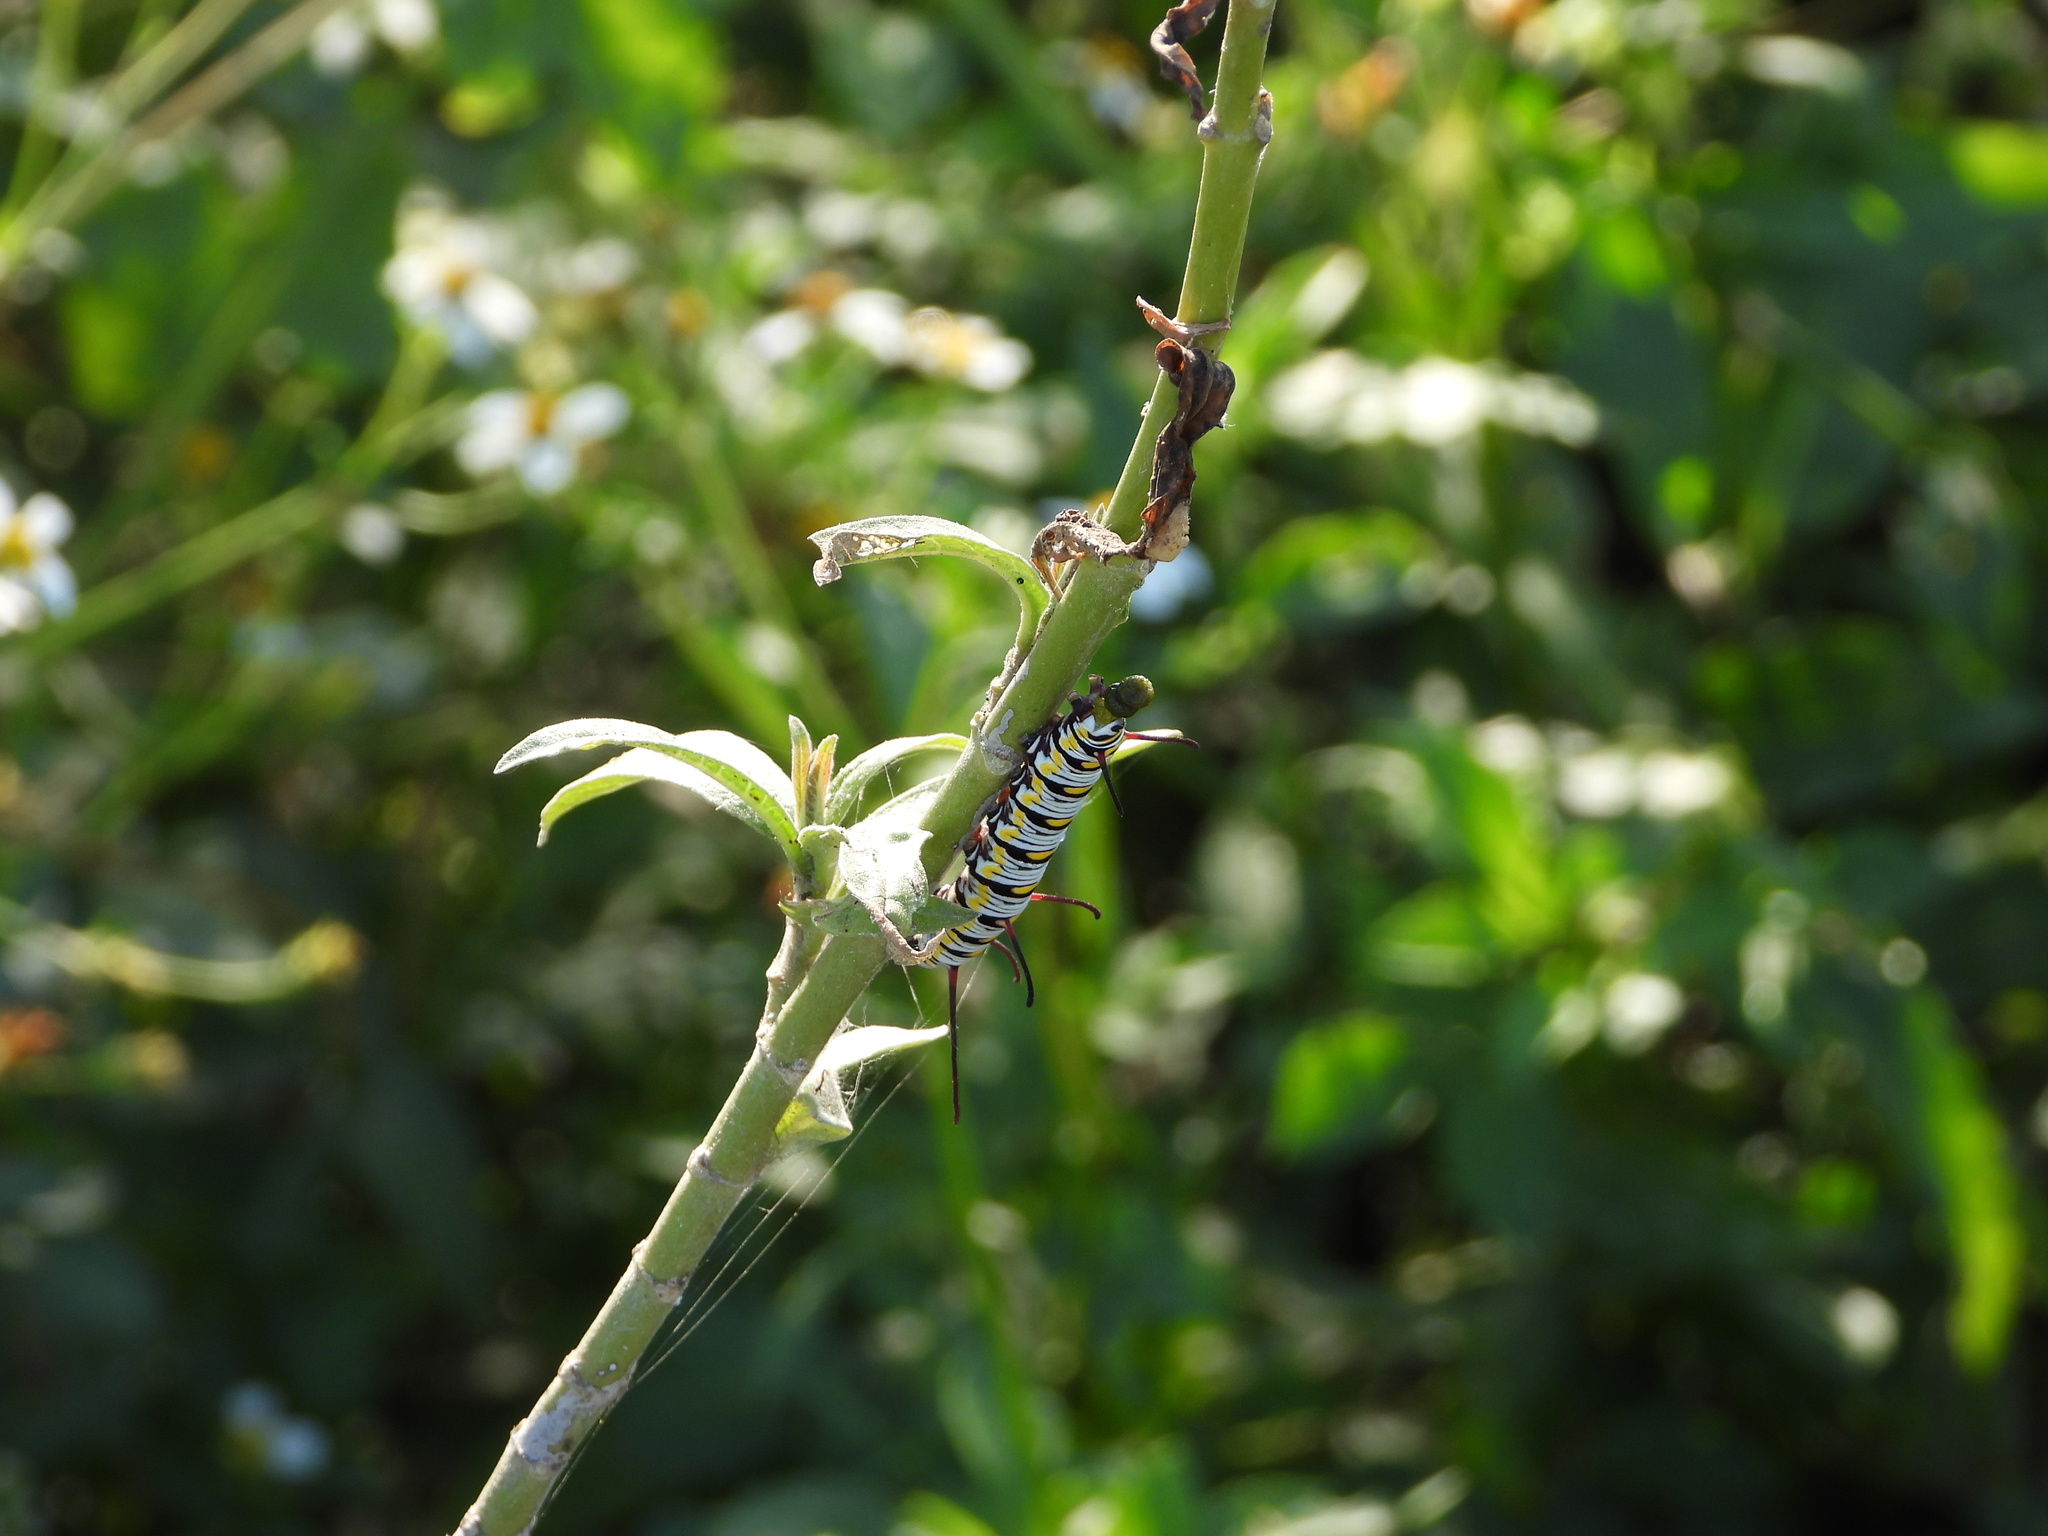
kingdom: Animalia
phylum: Arthropoda
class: Insecta
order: Lepidoptera
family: Nymphalidae
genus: Danaus
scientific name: Danaus gilippus
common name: Queen
